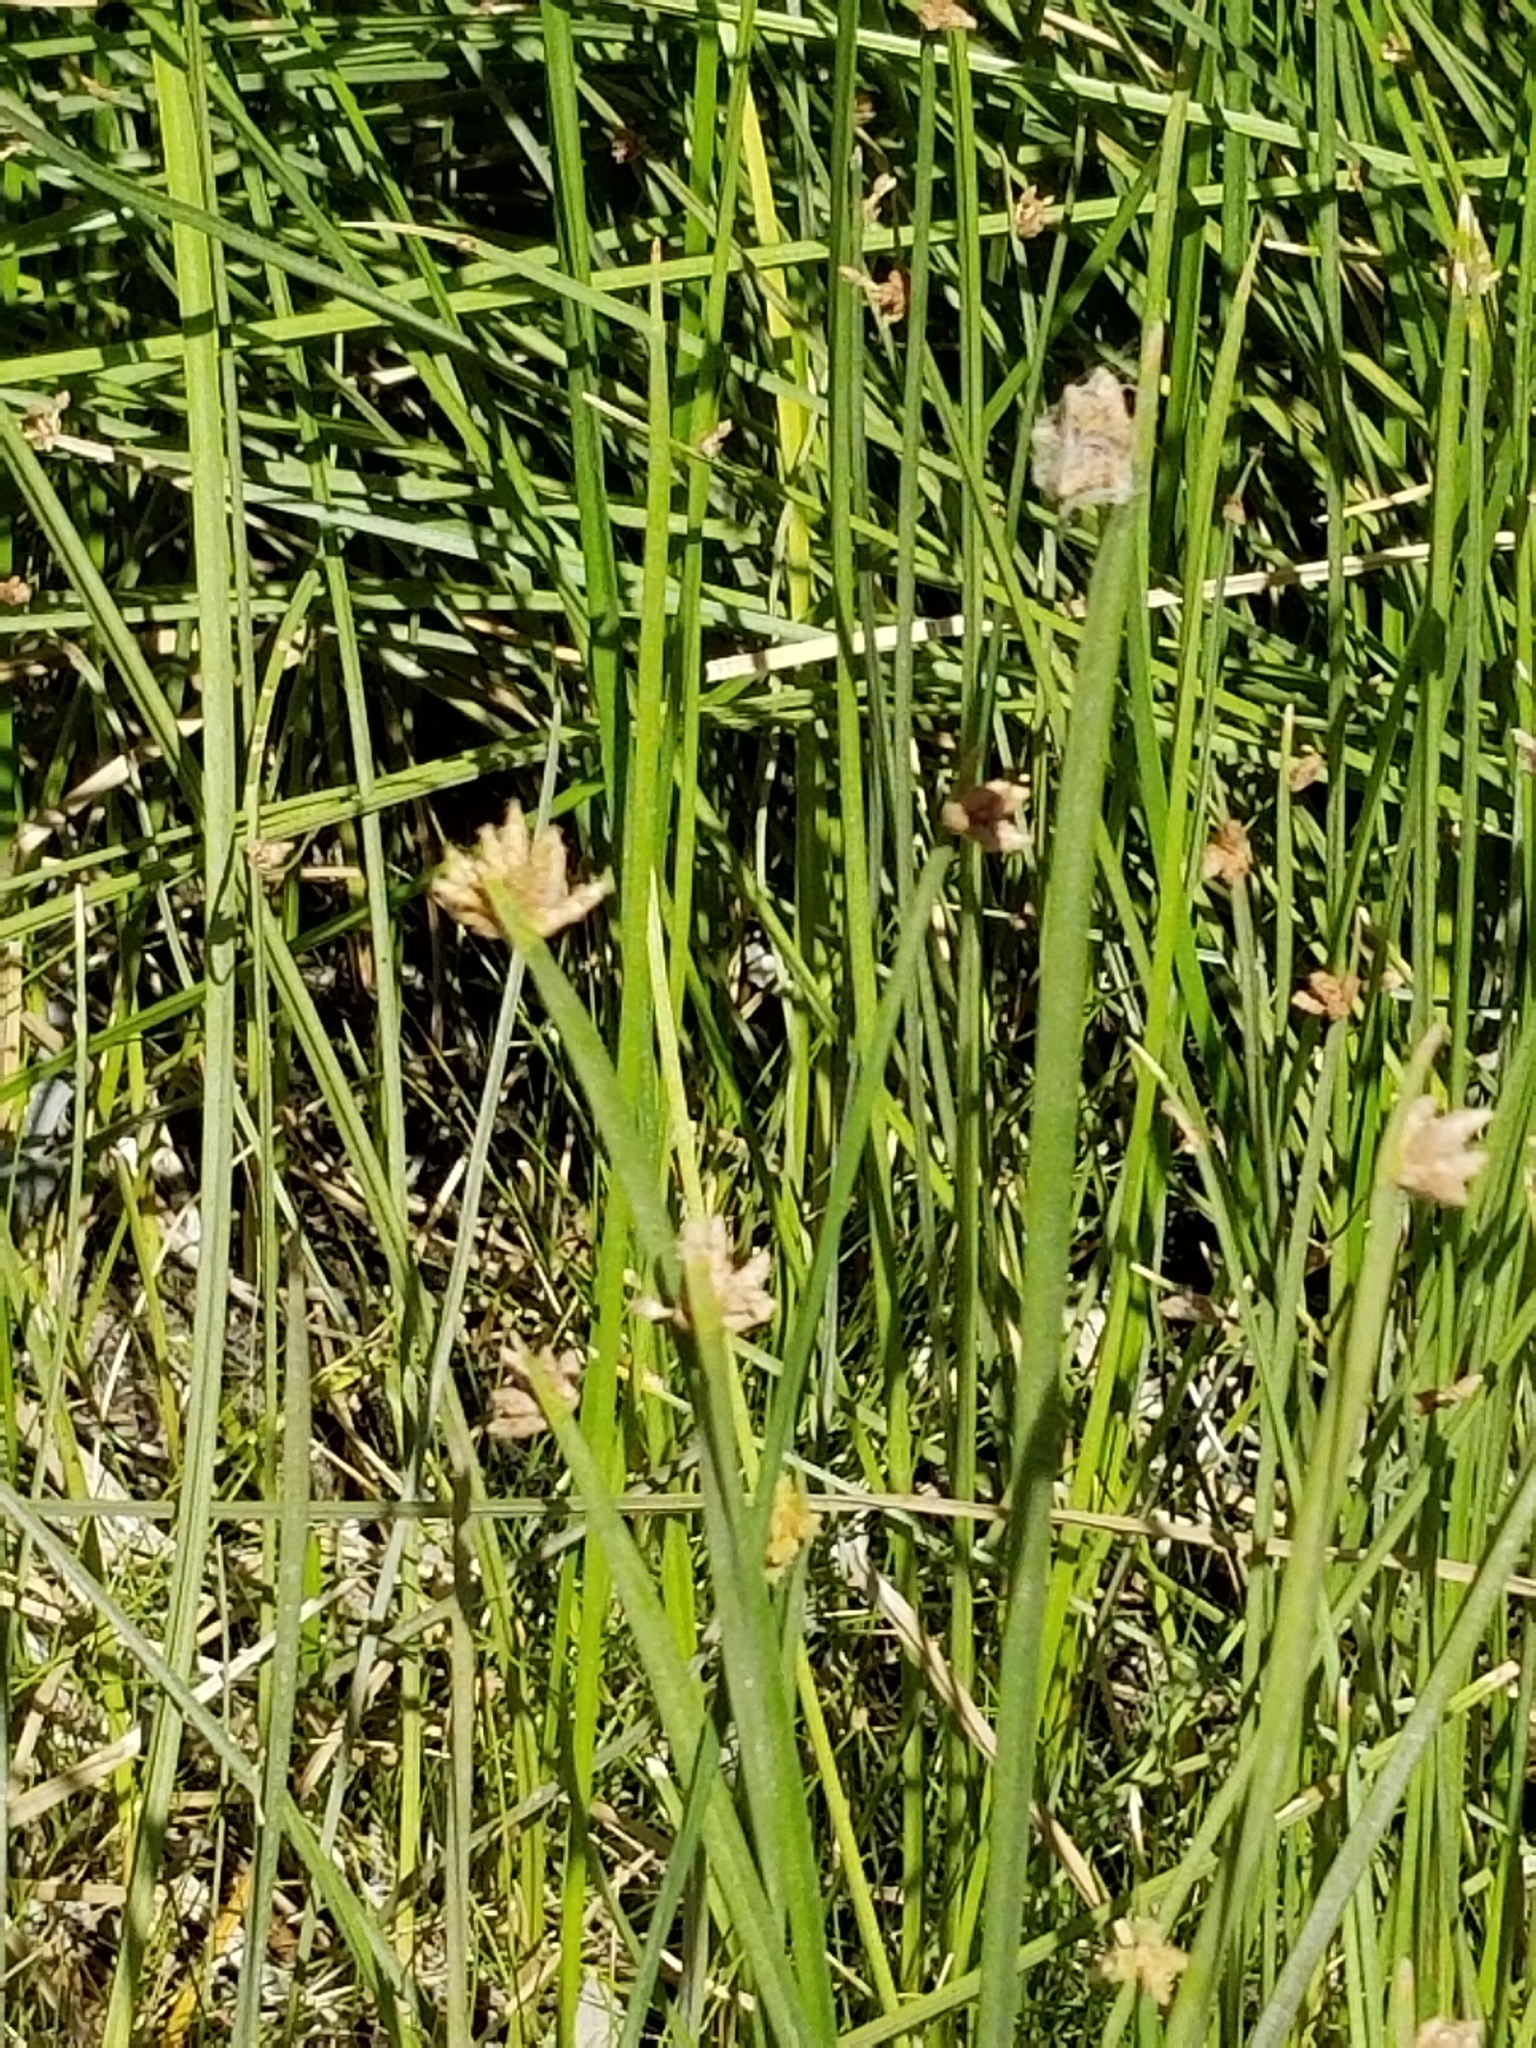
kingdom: Plantae
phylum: Tracheophyta
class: Liliopsida
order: Poales
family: Cyperaceae
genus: Schoenoplectus
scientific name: Schoenoplectus americanus
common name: American three-square bulrush
